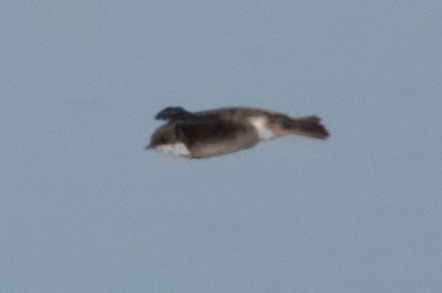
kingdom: Animalia
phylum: Chordata
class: Aves
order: Passeriformes
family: Hirundinidae
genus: Tachycineta
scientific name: Tachycineta bicolor
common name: Tree swallow
